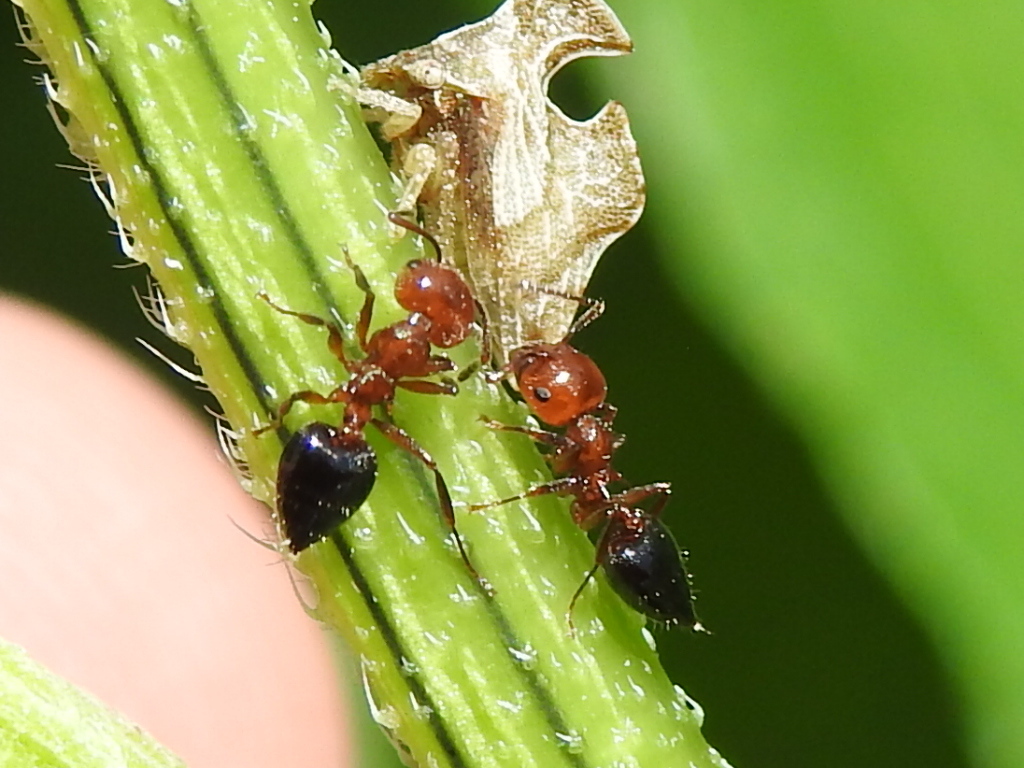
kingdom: Animalia
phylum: Arthropoda
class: Insecta
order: Hymenoptera
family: Formicidae
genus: Crematogaster
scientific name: Crematogaster laeviuscula
